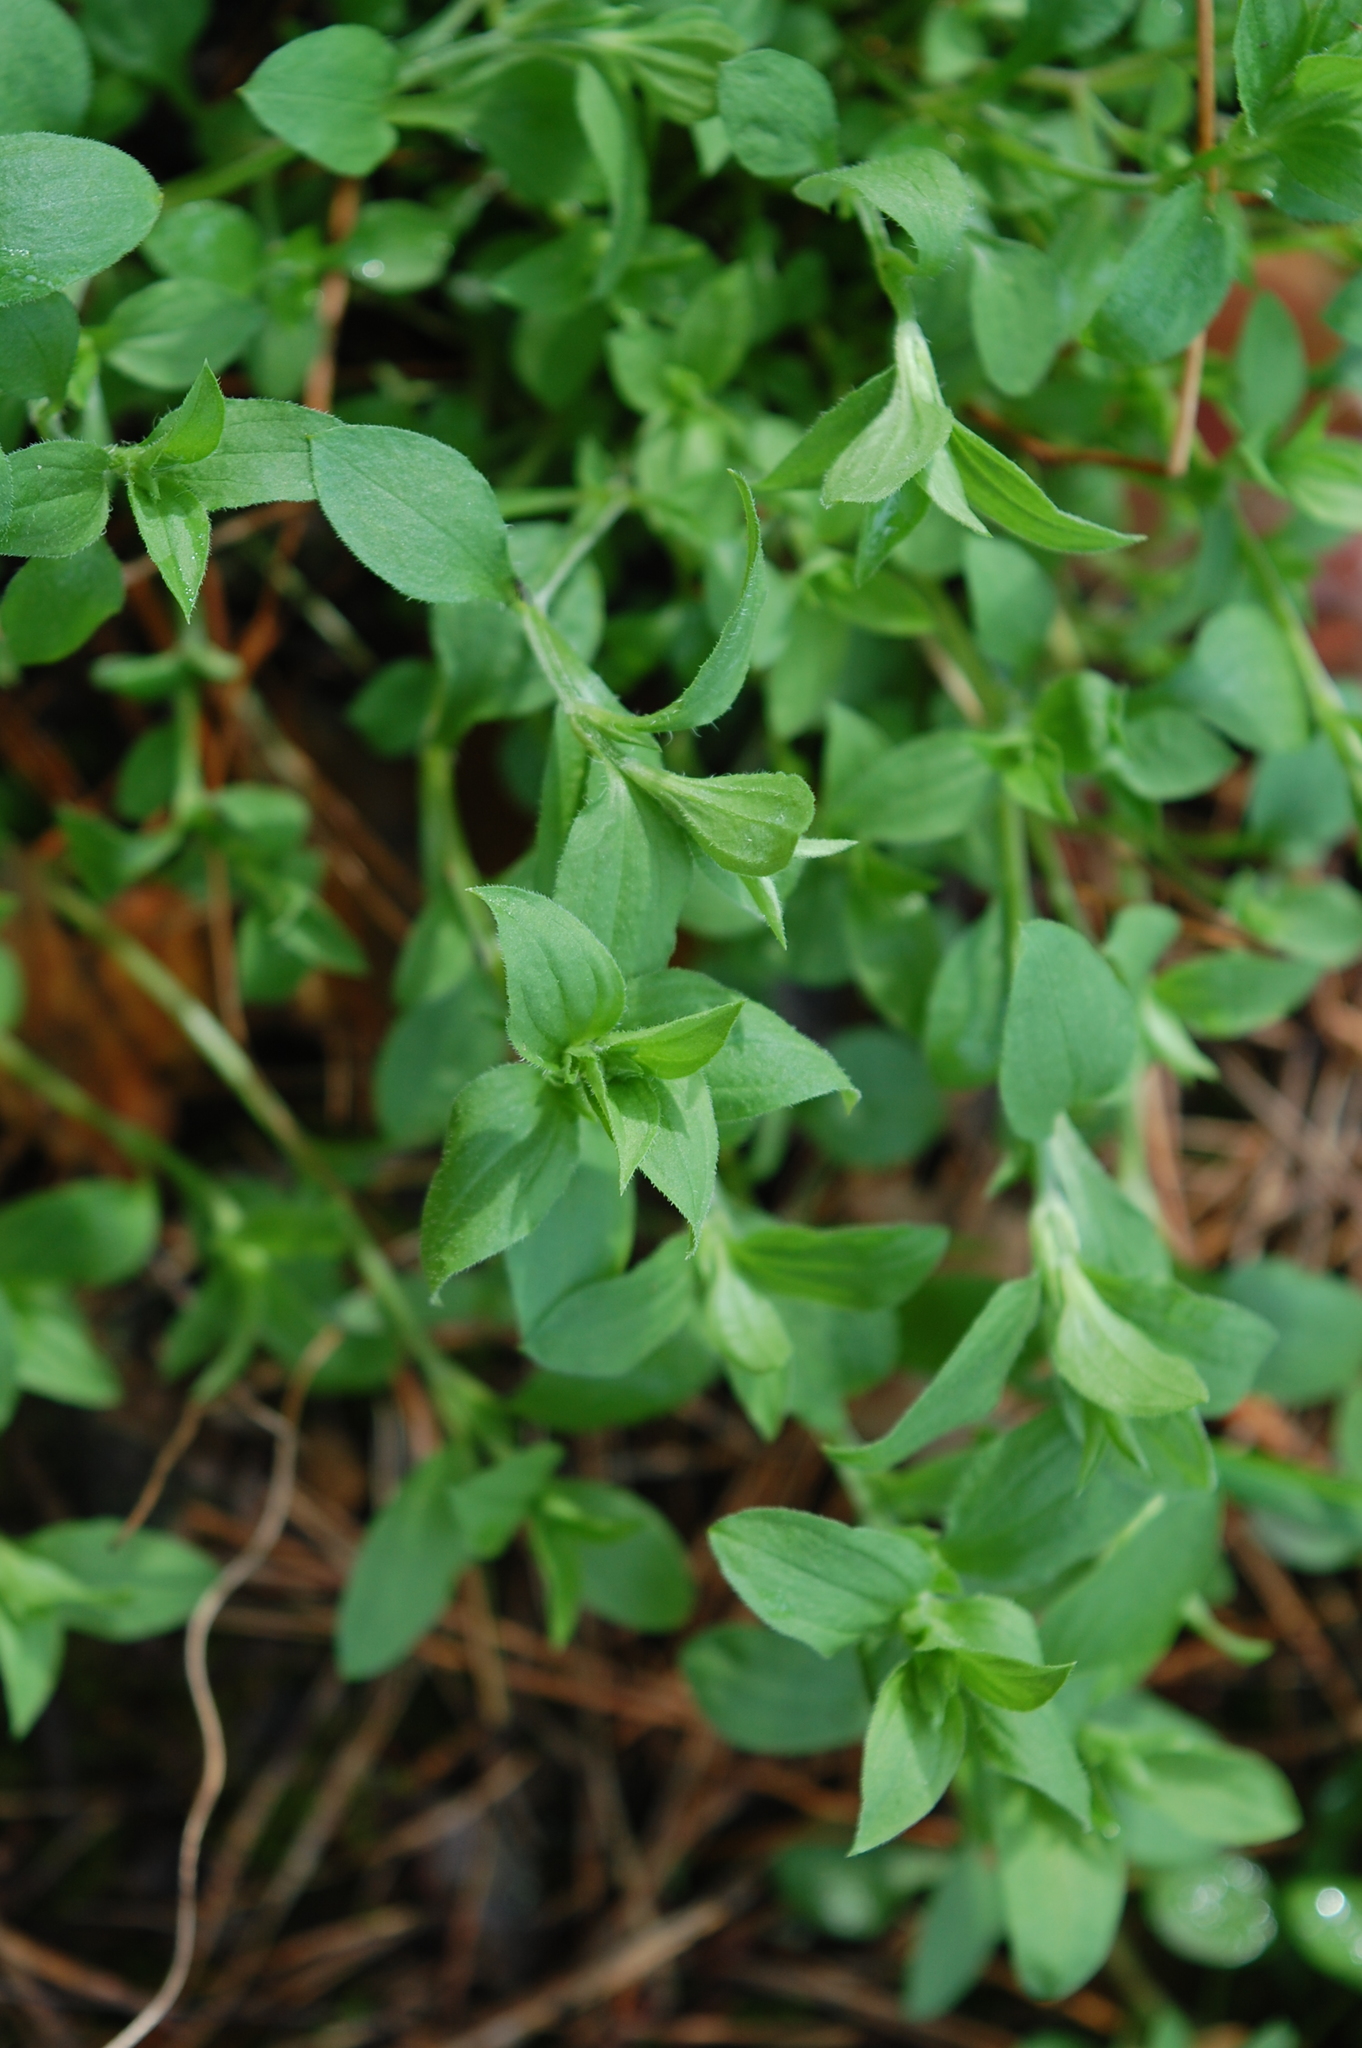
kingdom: Plantae
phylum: Tracheophyta
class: Magnoliopsida
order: Caryophyllales
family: Caryophyllaceae
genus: Moehringia
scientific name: Moehringia trinervia
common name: Three-nerved sandwort
